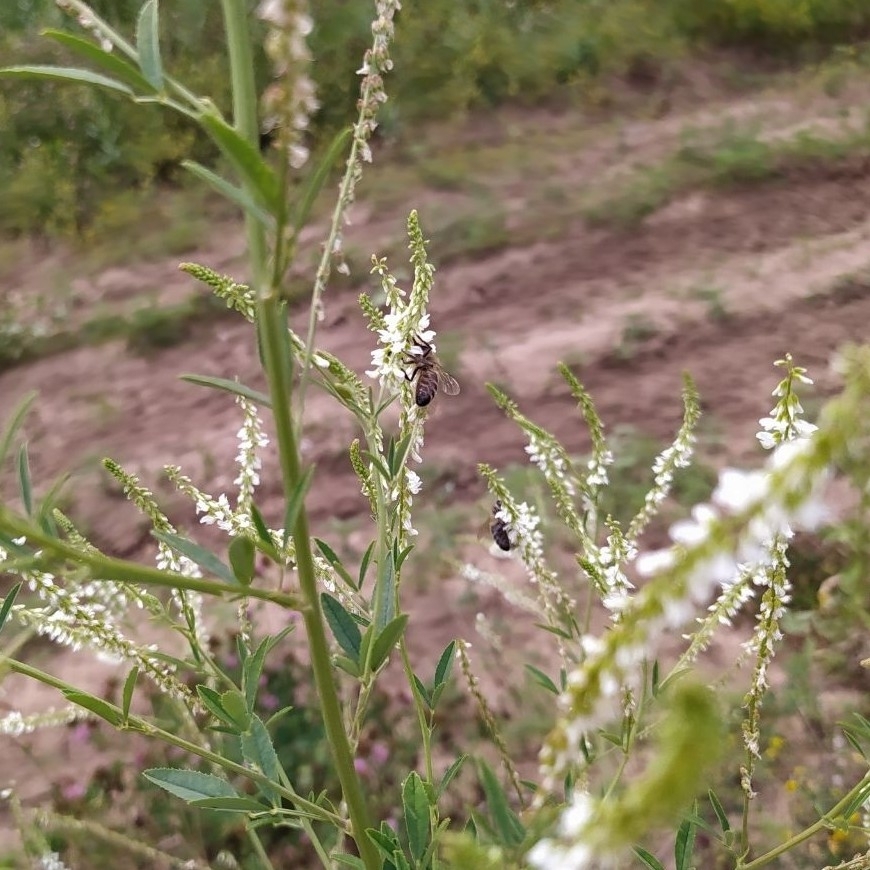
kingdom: Plantae
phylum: Tracheophyta
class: Magnoliopsida
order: Fabales
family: Fabaceae
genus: Melilotus
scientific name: Melilotus albus
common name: White melilot
